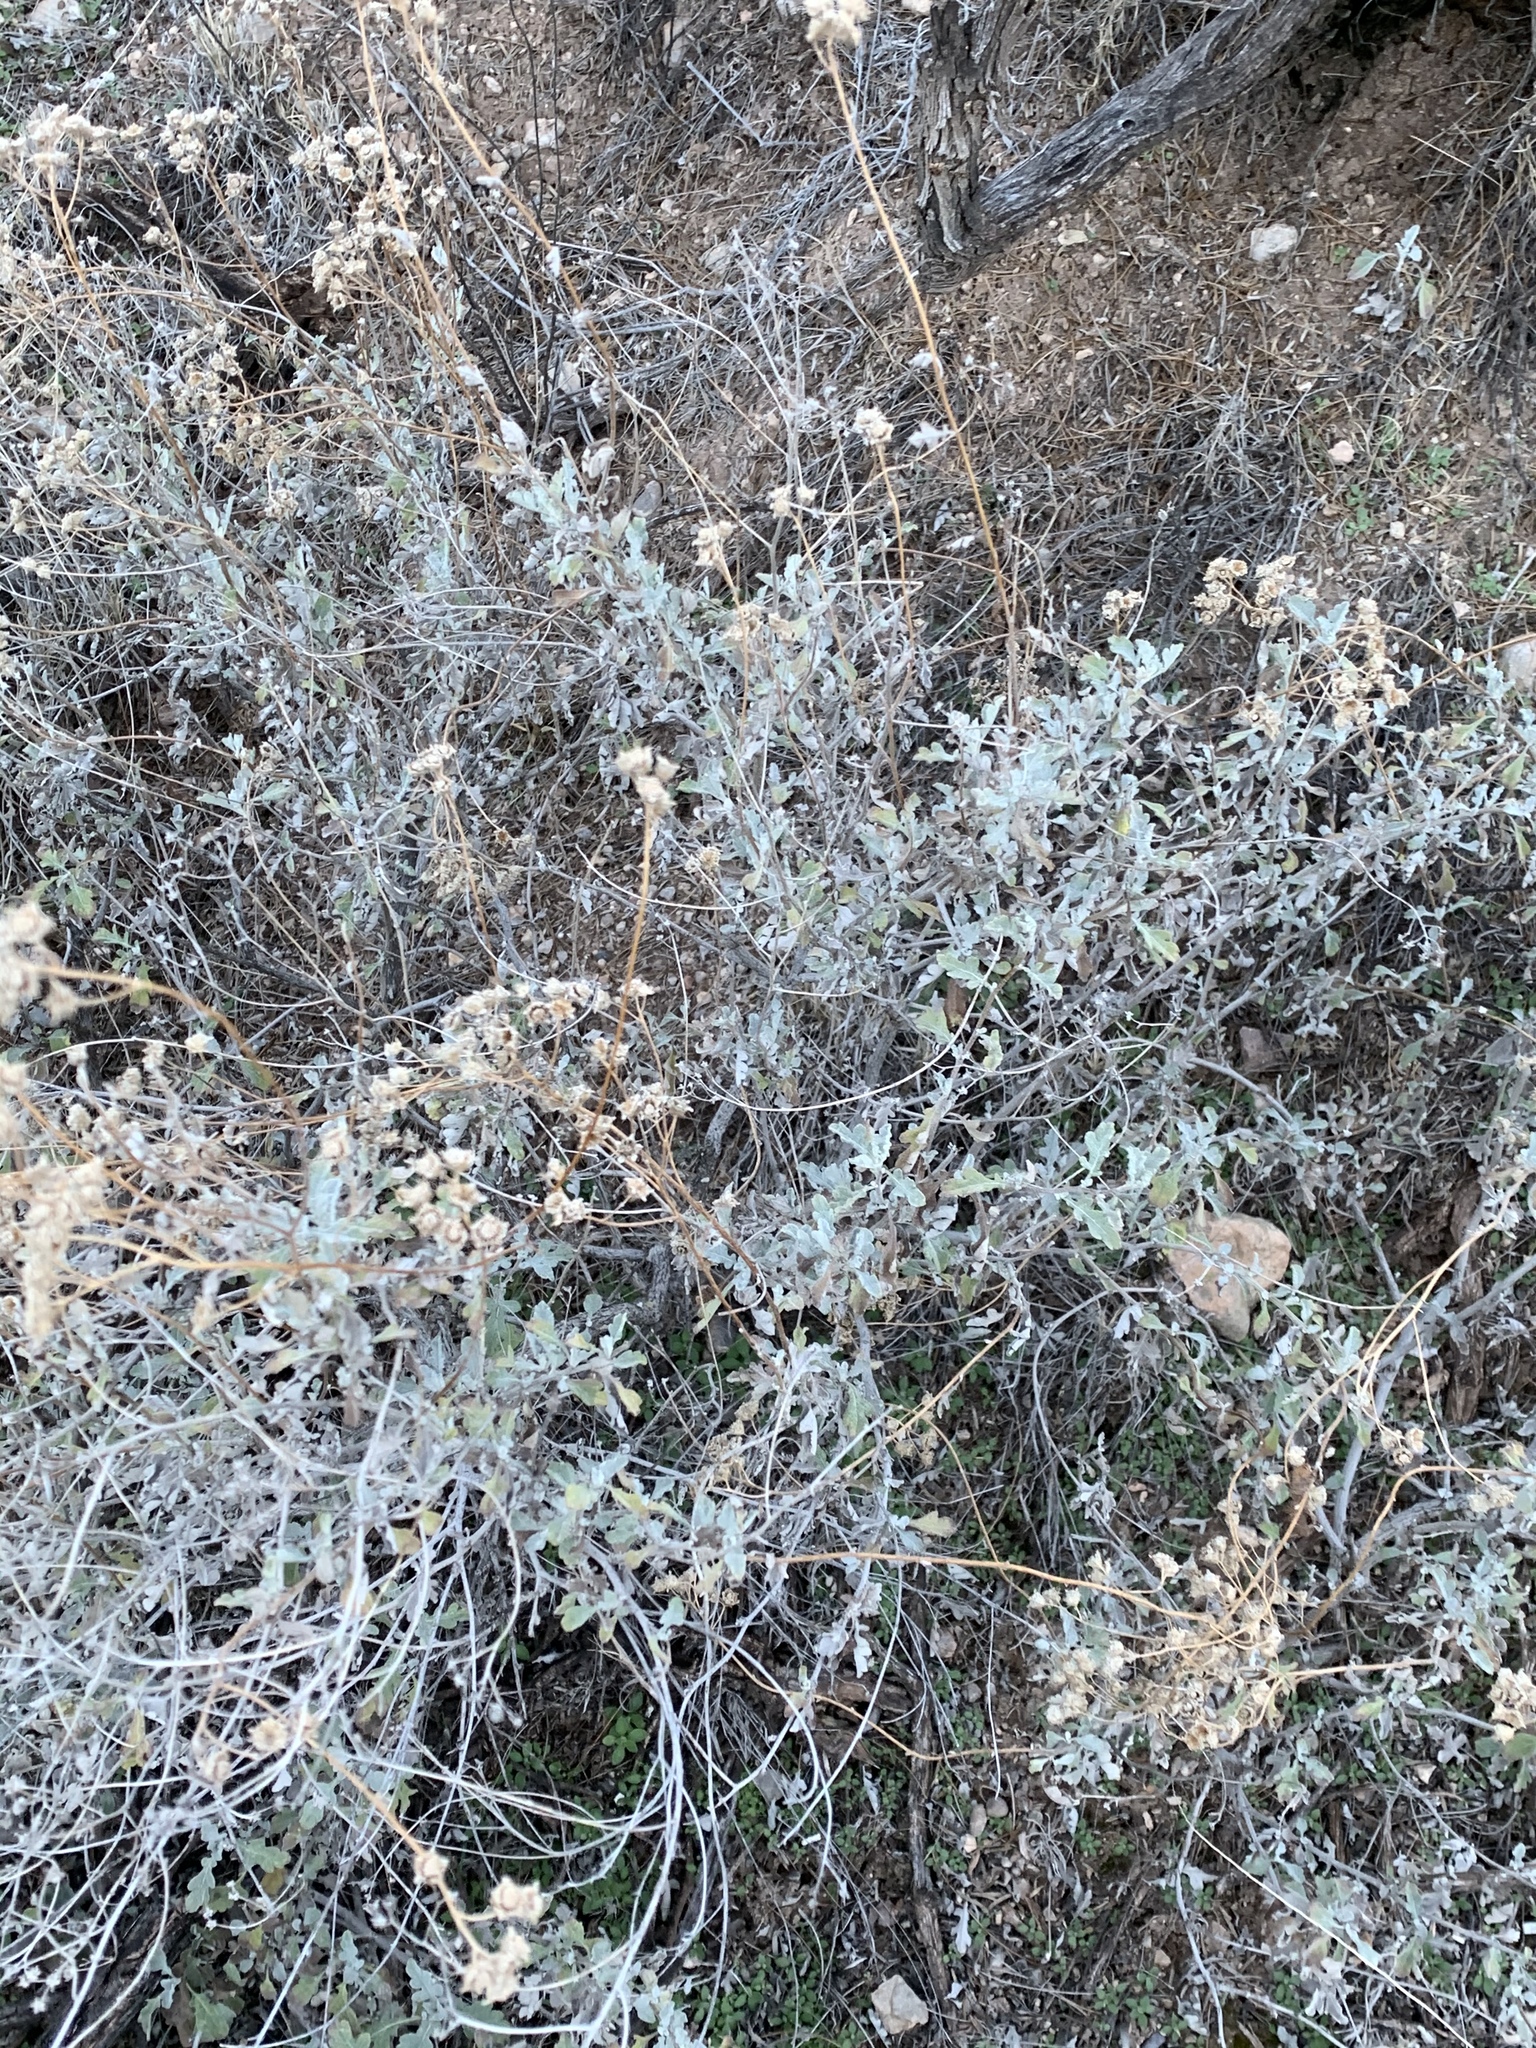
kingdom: Plantae
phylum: Tracheophyta
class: Magnoliopsida
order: Asterales
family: Asteraceae
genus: Parthenium
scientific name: Parthenium incanum
